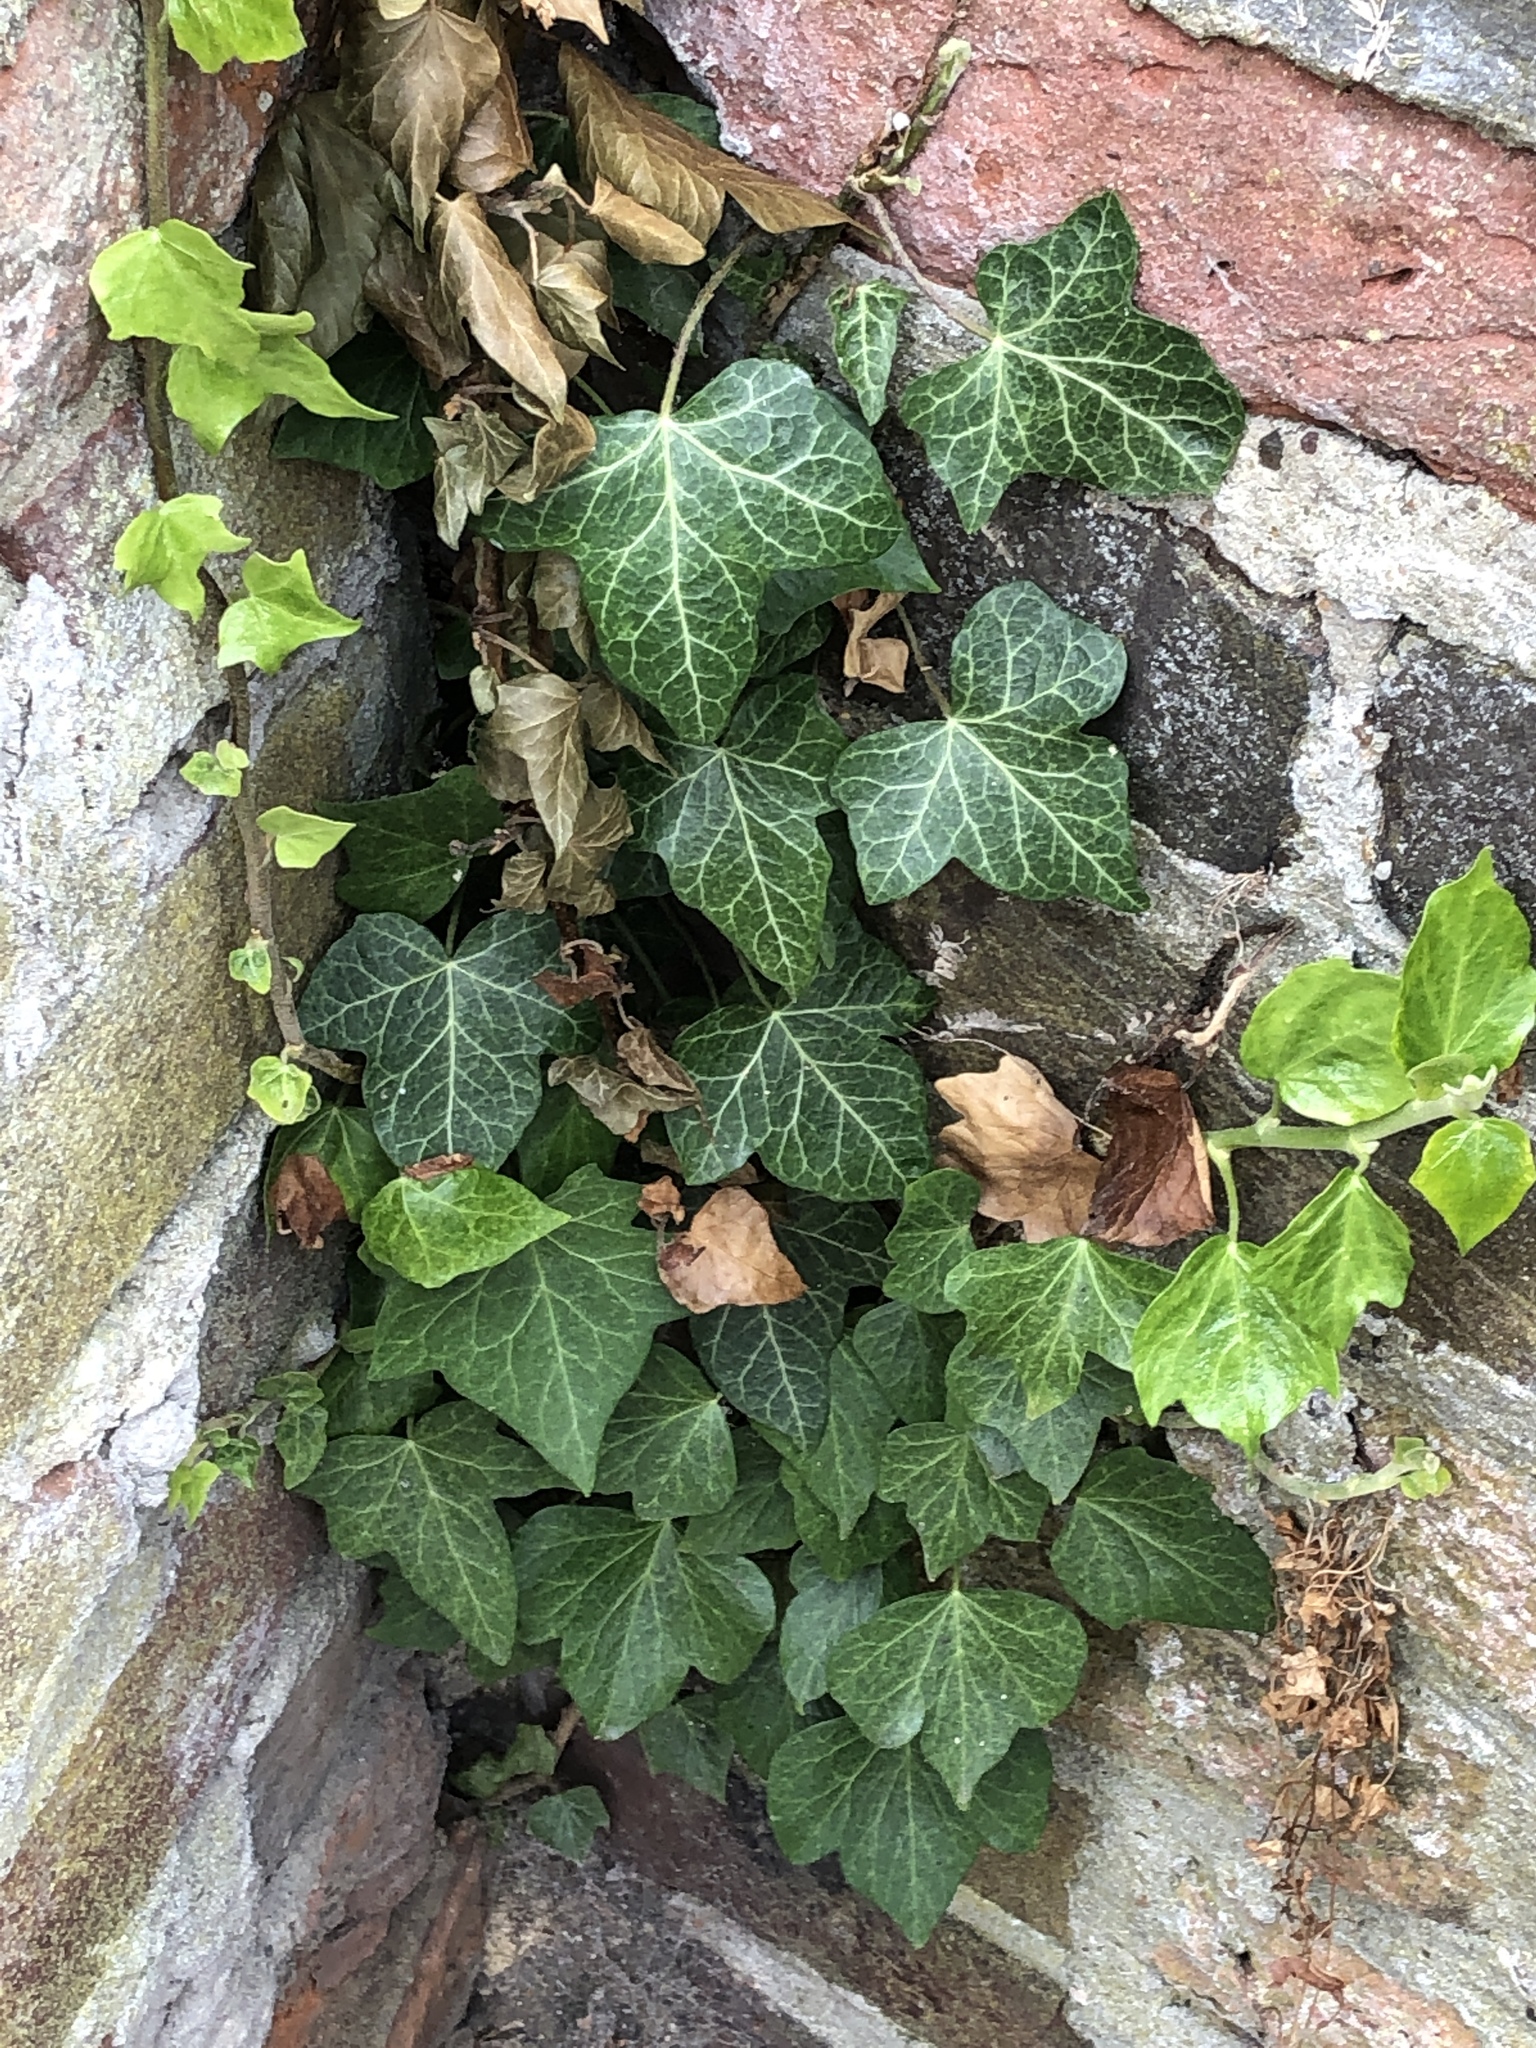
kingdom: Plantae
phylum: Tracheophyta
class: Magnoliopsida
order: Apiales
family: Araliaceae
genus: Hedera
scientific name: Hedera helix
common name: Ivy
